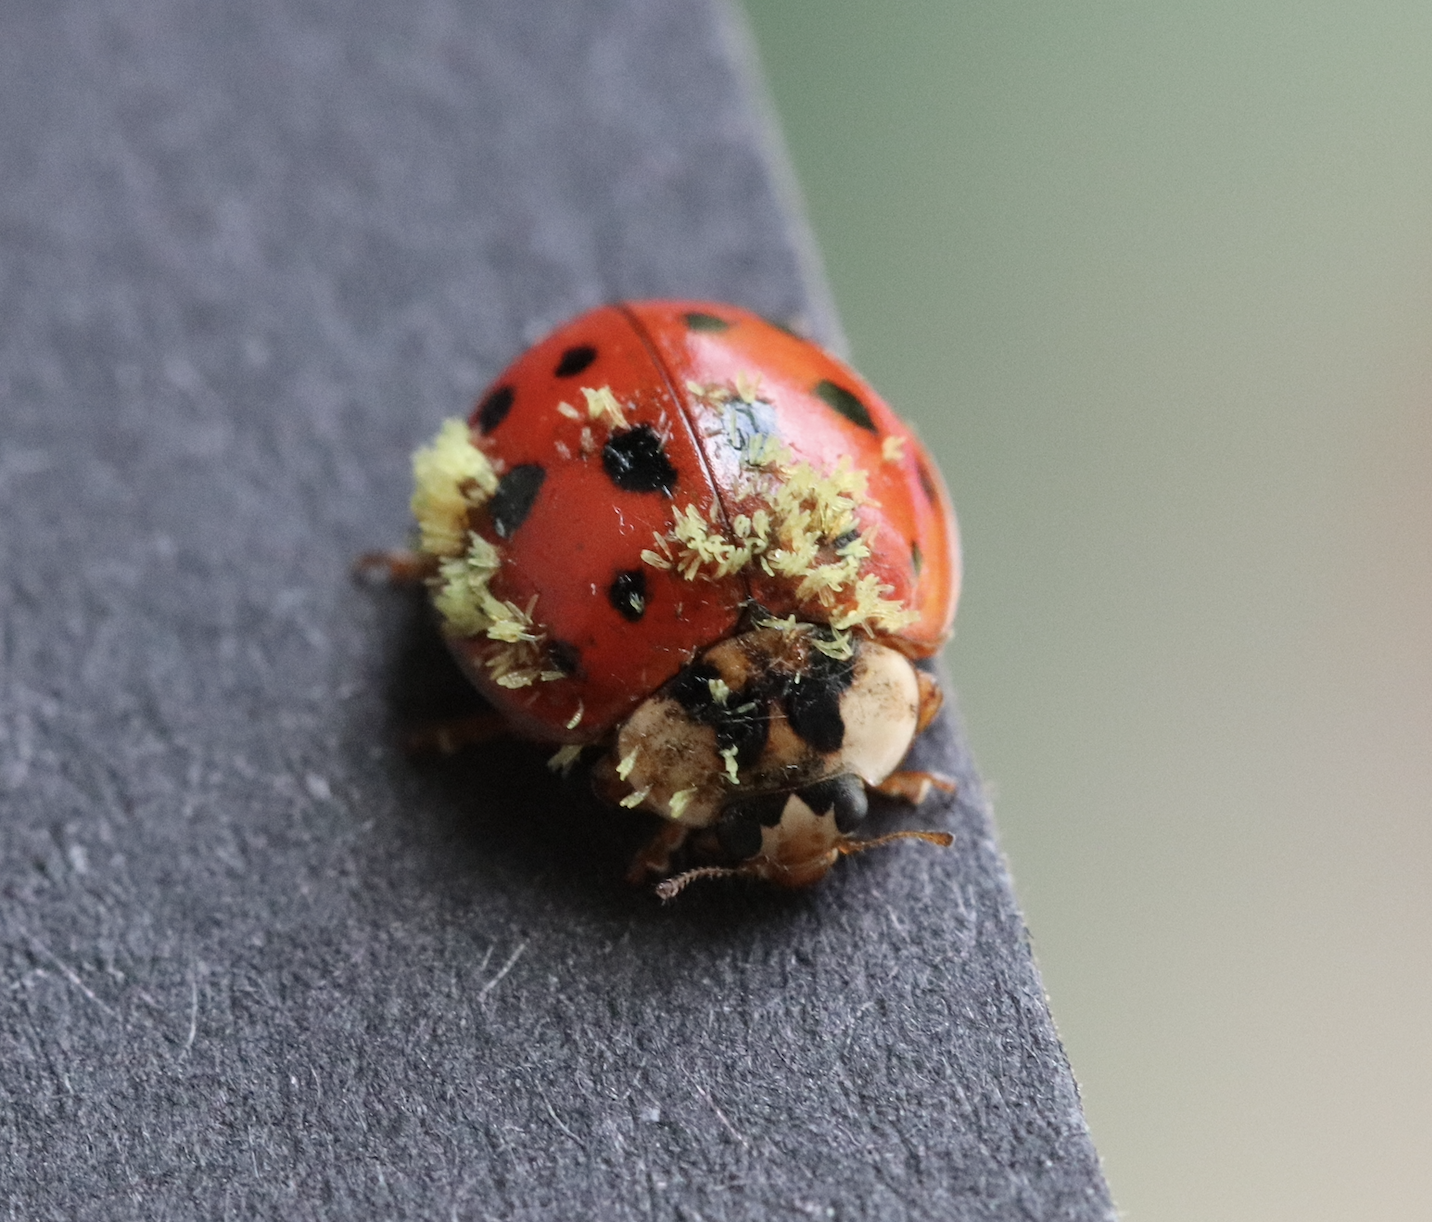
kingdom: Fungi
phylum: Ascomycota
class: Laboulbeniomycetes
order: Laboulbeniales
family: Laboulbeniaceae
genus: Hesperomyces
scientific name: Hesperomyces harmoniae
